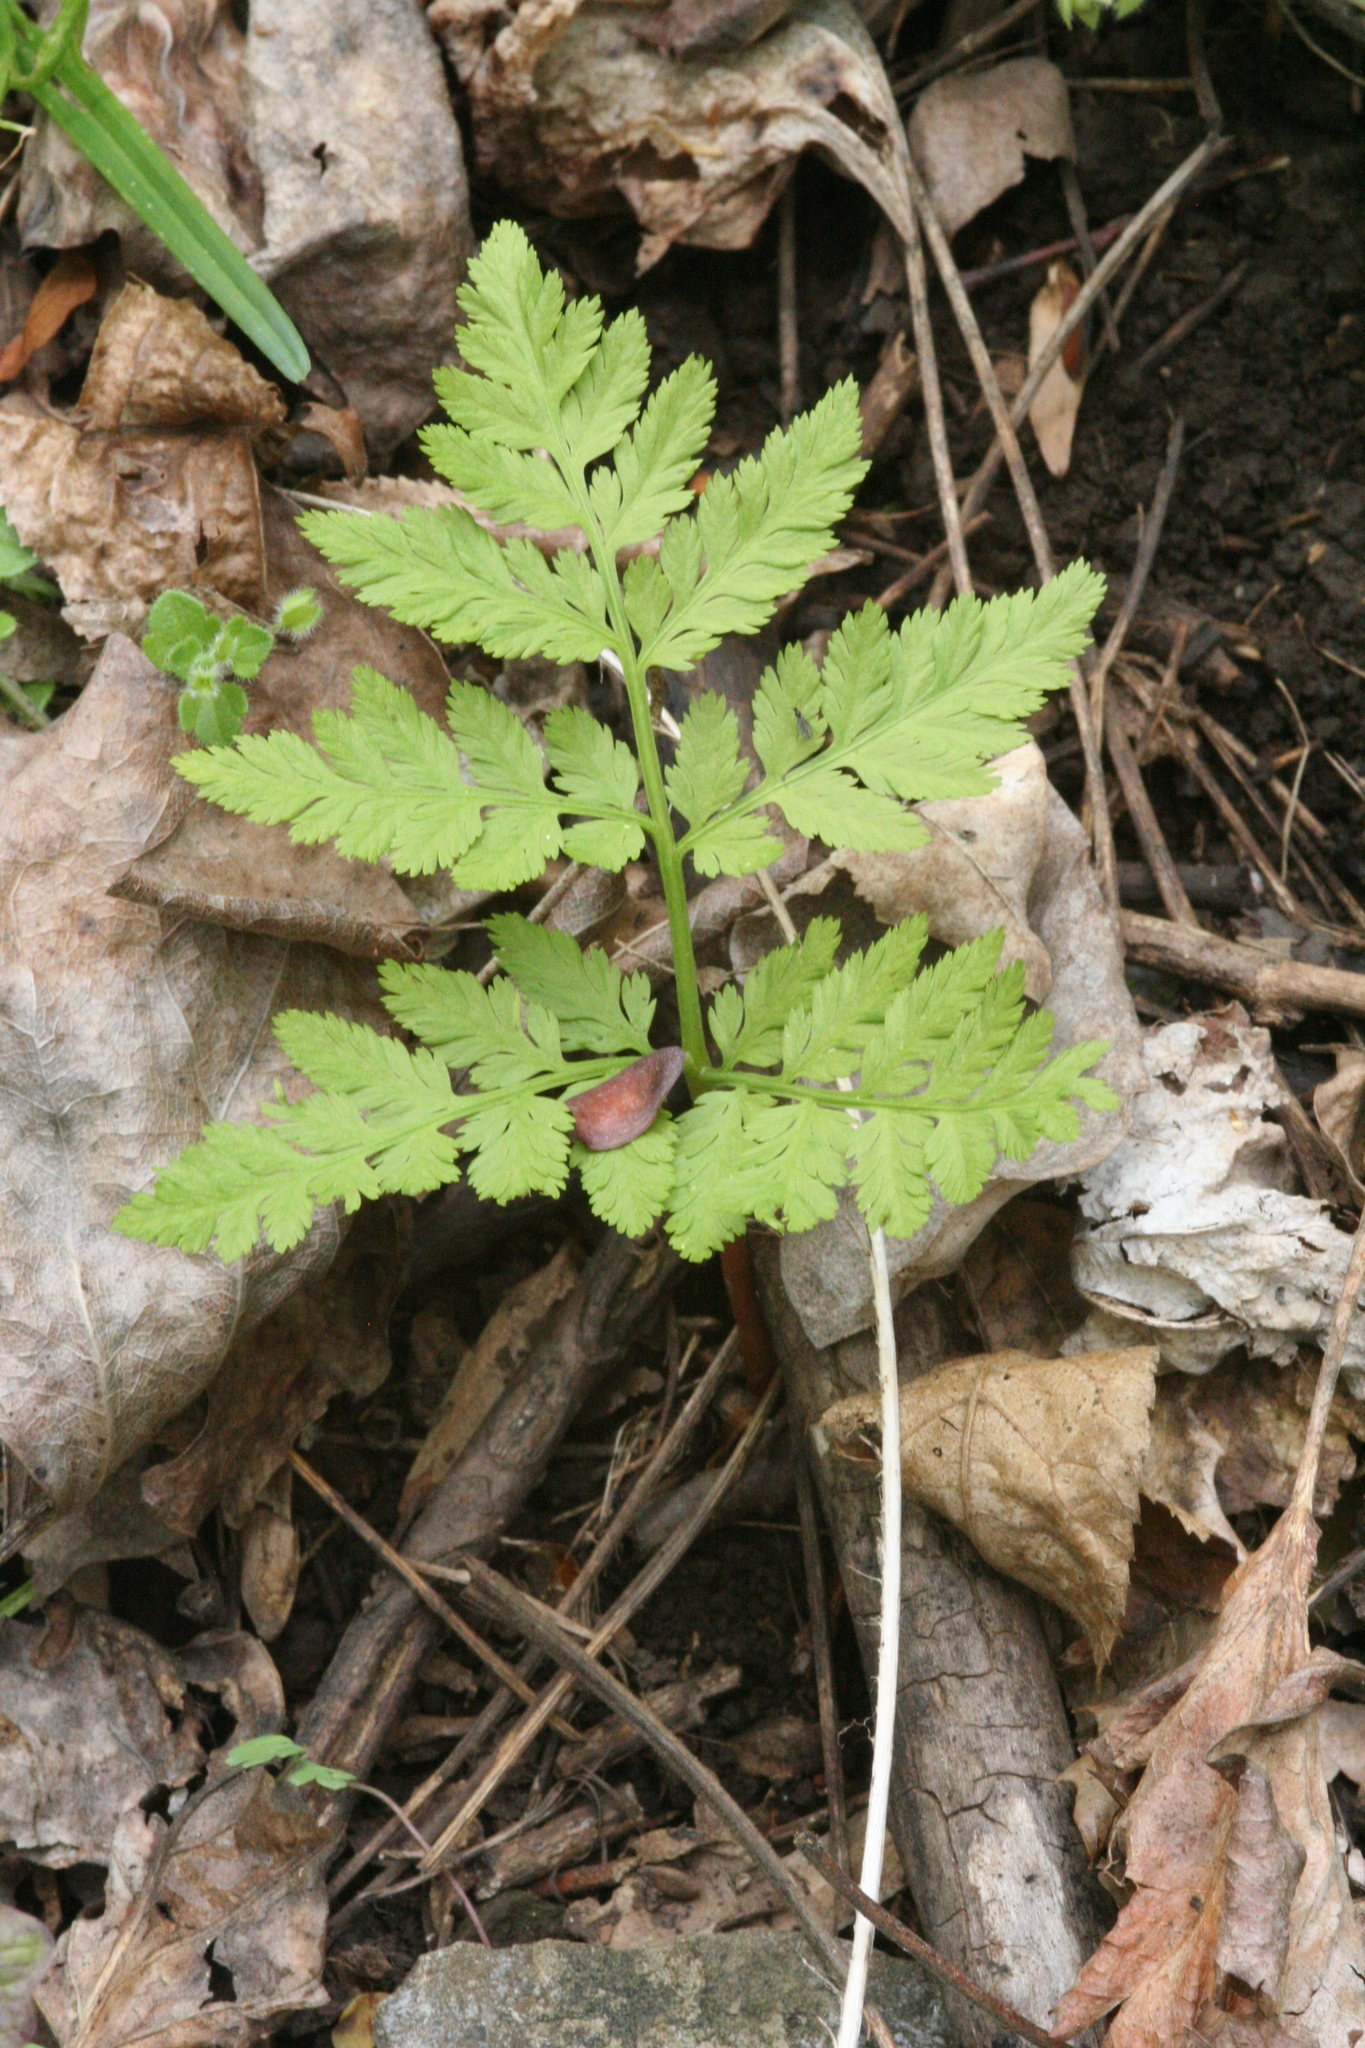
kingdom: Plantae
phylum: Tracheophyta
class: Polypodiopsida
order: Ophioglossales
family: Ophioglossaceae
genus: Botrypus
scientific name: Botrypus virginianus
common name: Common grapefern
